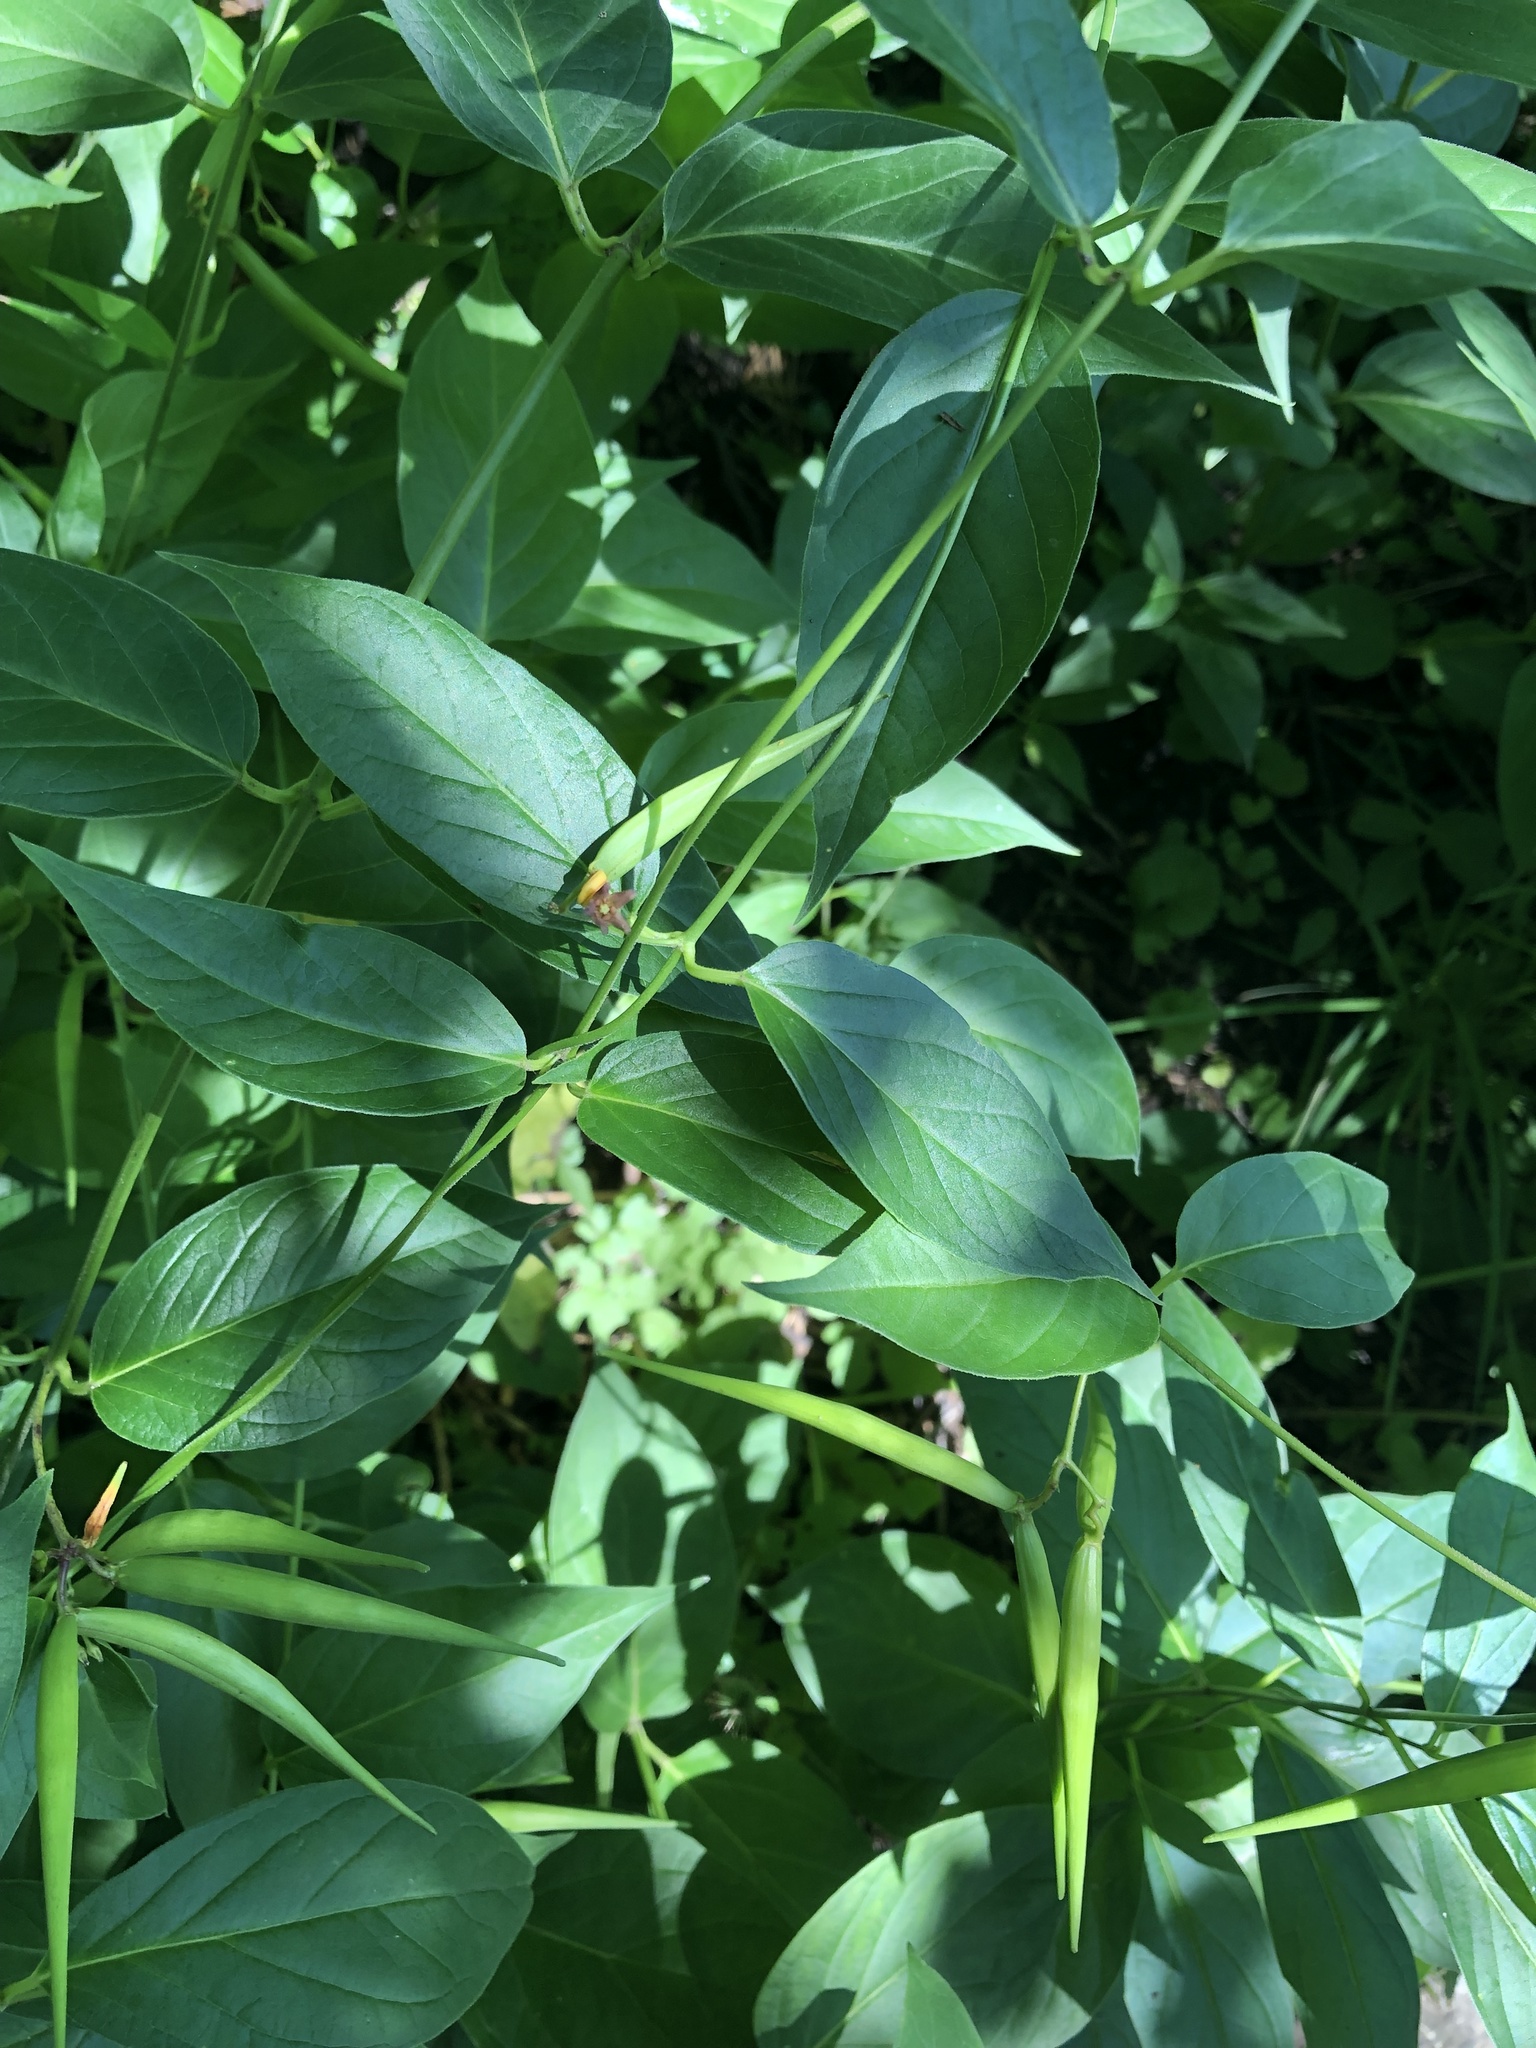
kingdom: Plantae
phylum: Tracheophyta
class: Magnoliopsida
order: Gentianales
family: Apocynaceae
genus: Vincetoxicum
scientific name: Vincetoxicum rossicum
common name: Dog-strangling vine
